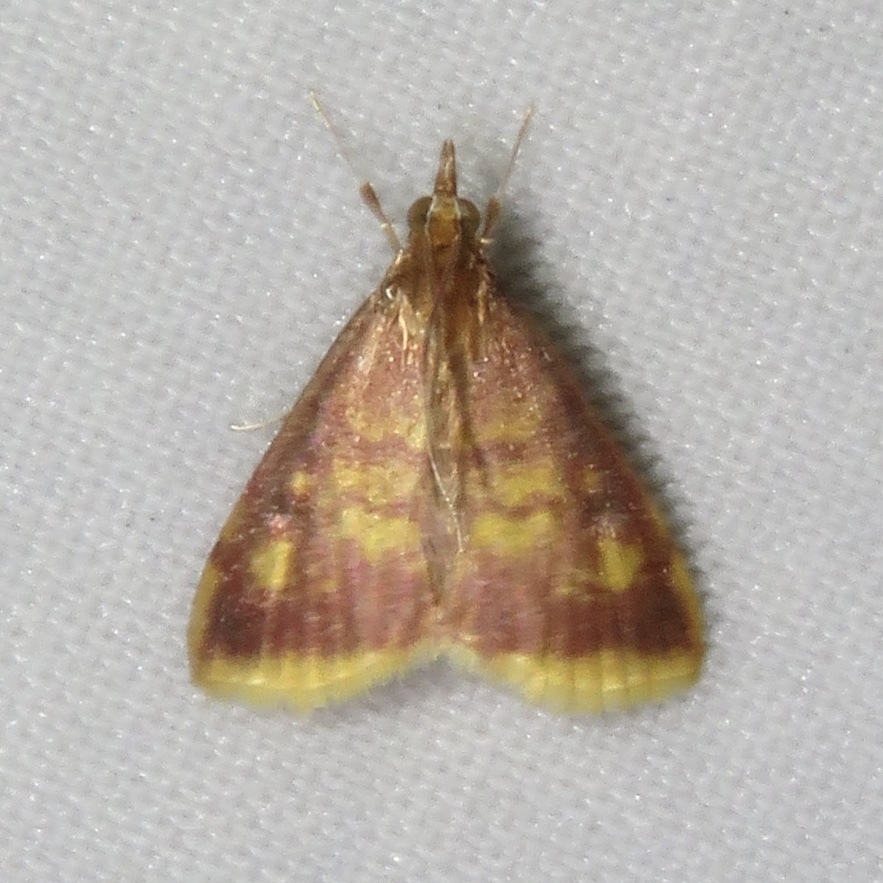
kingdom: Animalia
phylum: Arthropoda
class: Insecta
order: Lepidoptera
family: Crambidae
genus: Pyrausta
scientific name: Pyrausta acrionalis
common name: Mint-loving pyrausta moth
